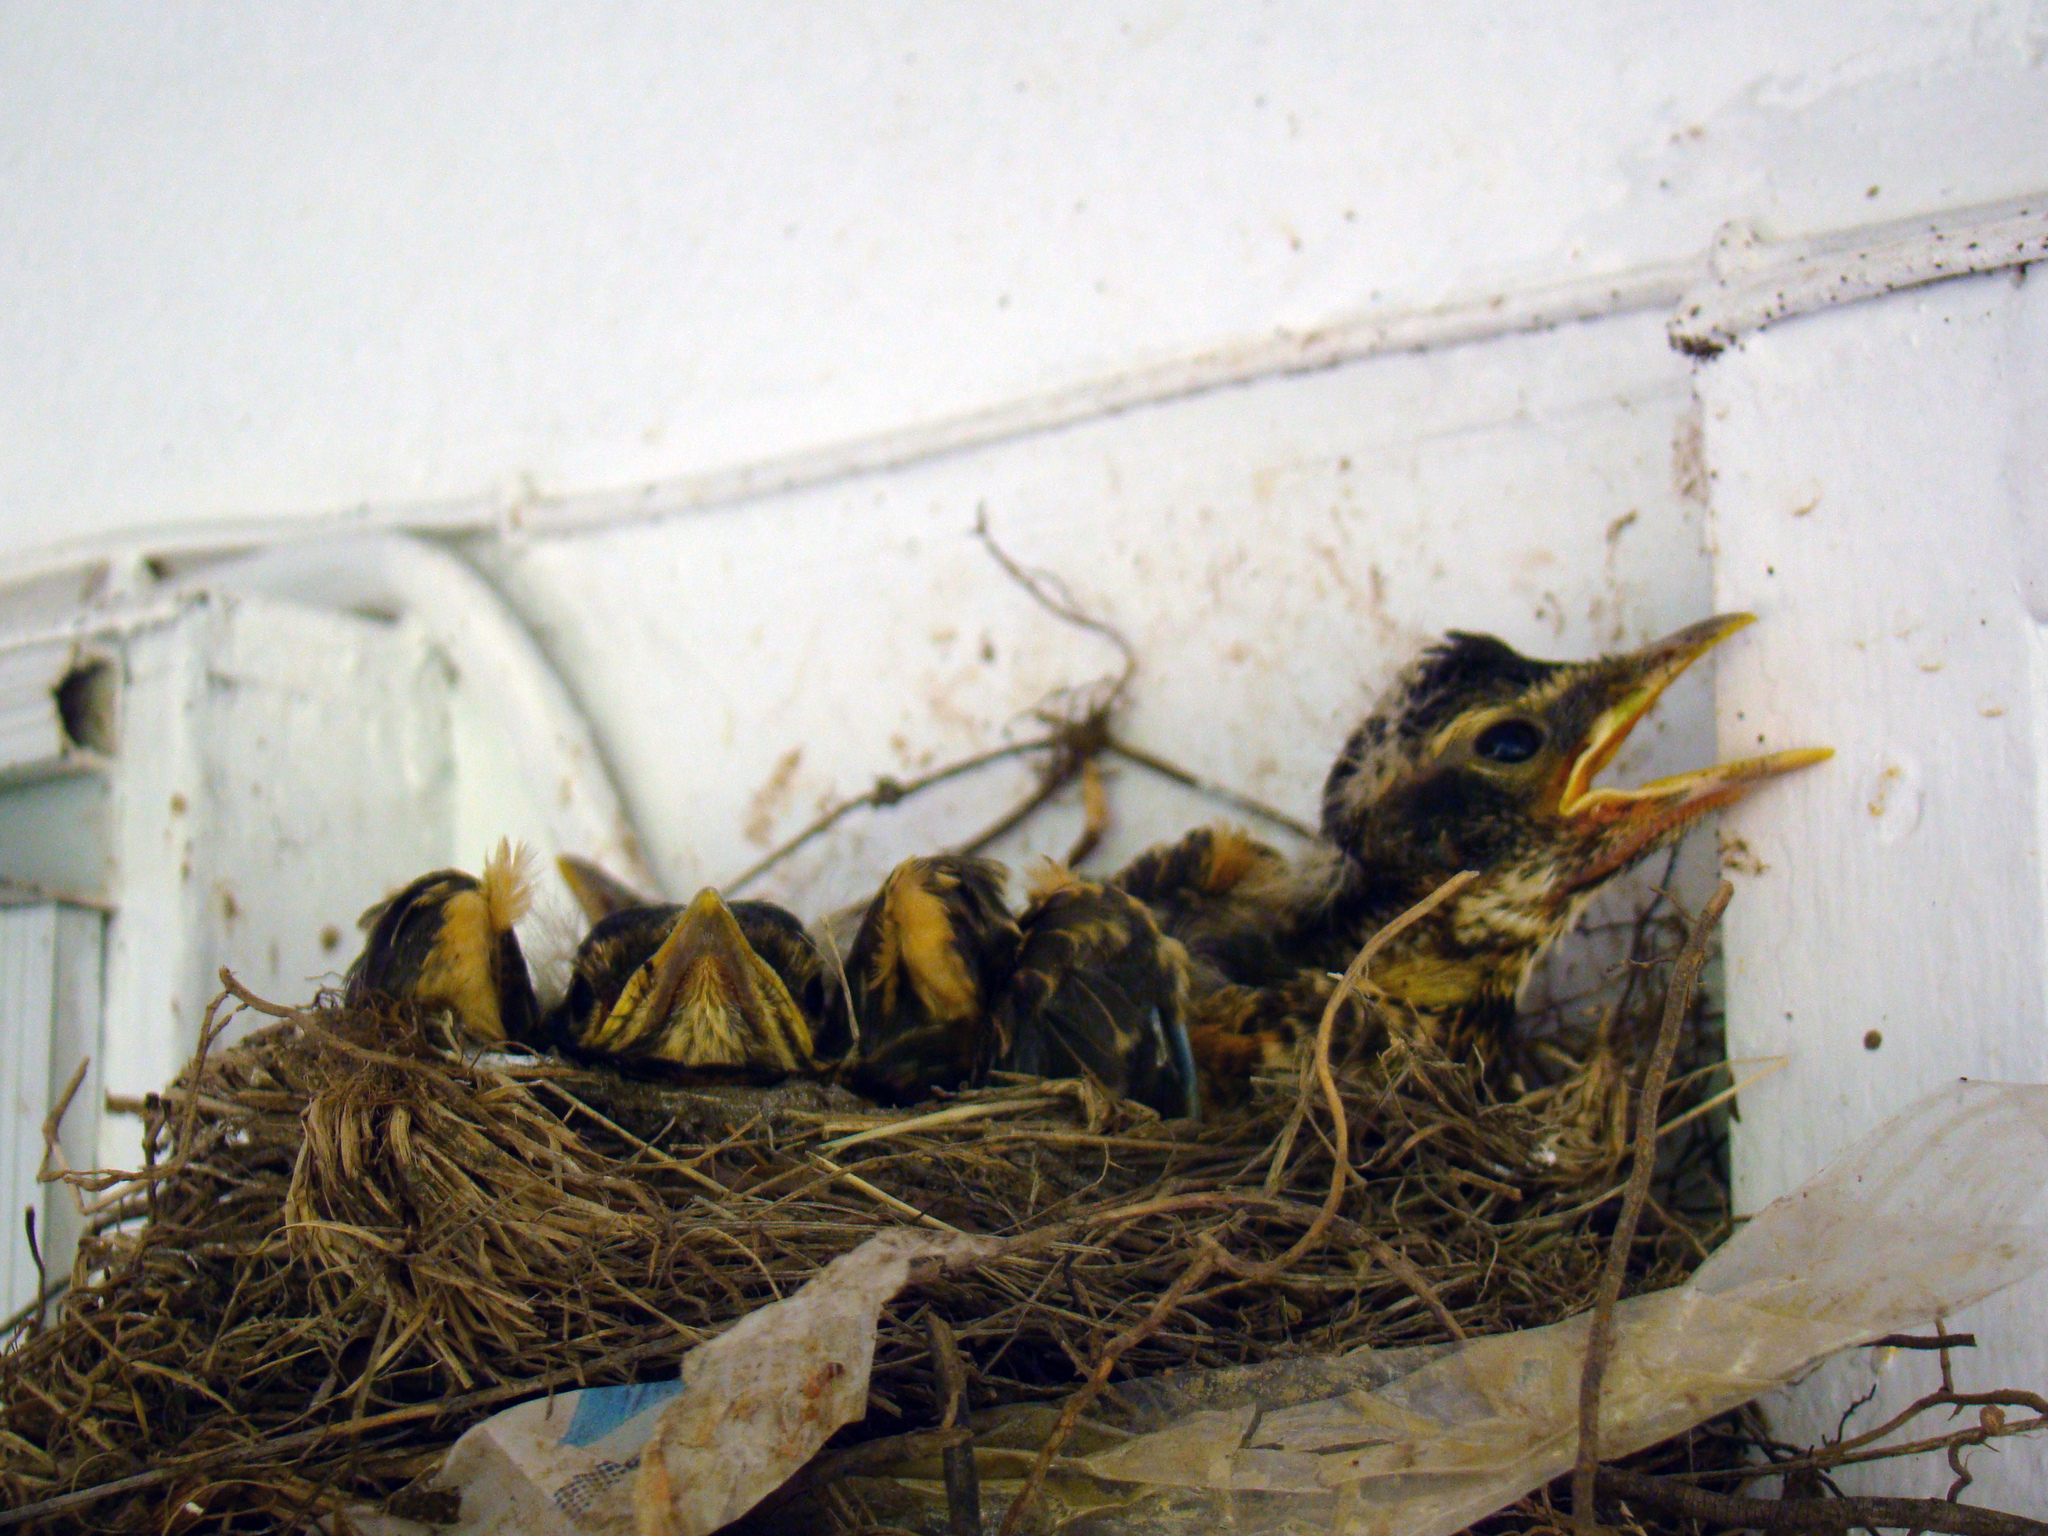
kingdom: Animalia
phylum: Chordata
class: Aves
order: Passeriformes
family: Turdidae
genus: Turdus
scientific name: Turdus migratorius
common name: American robin
